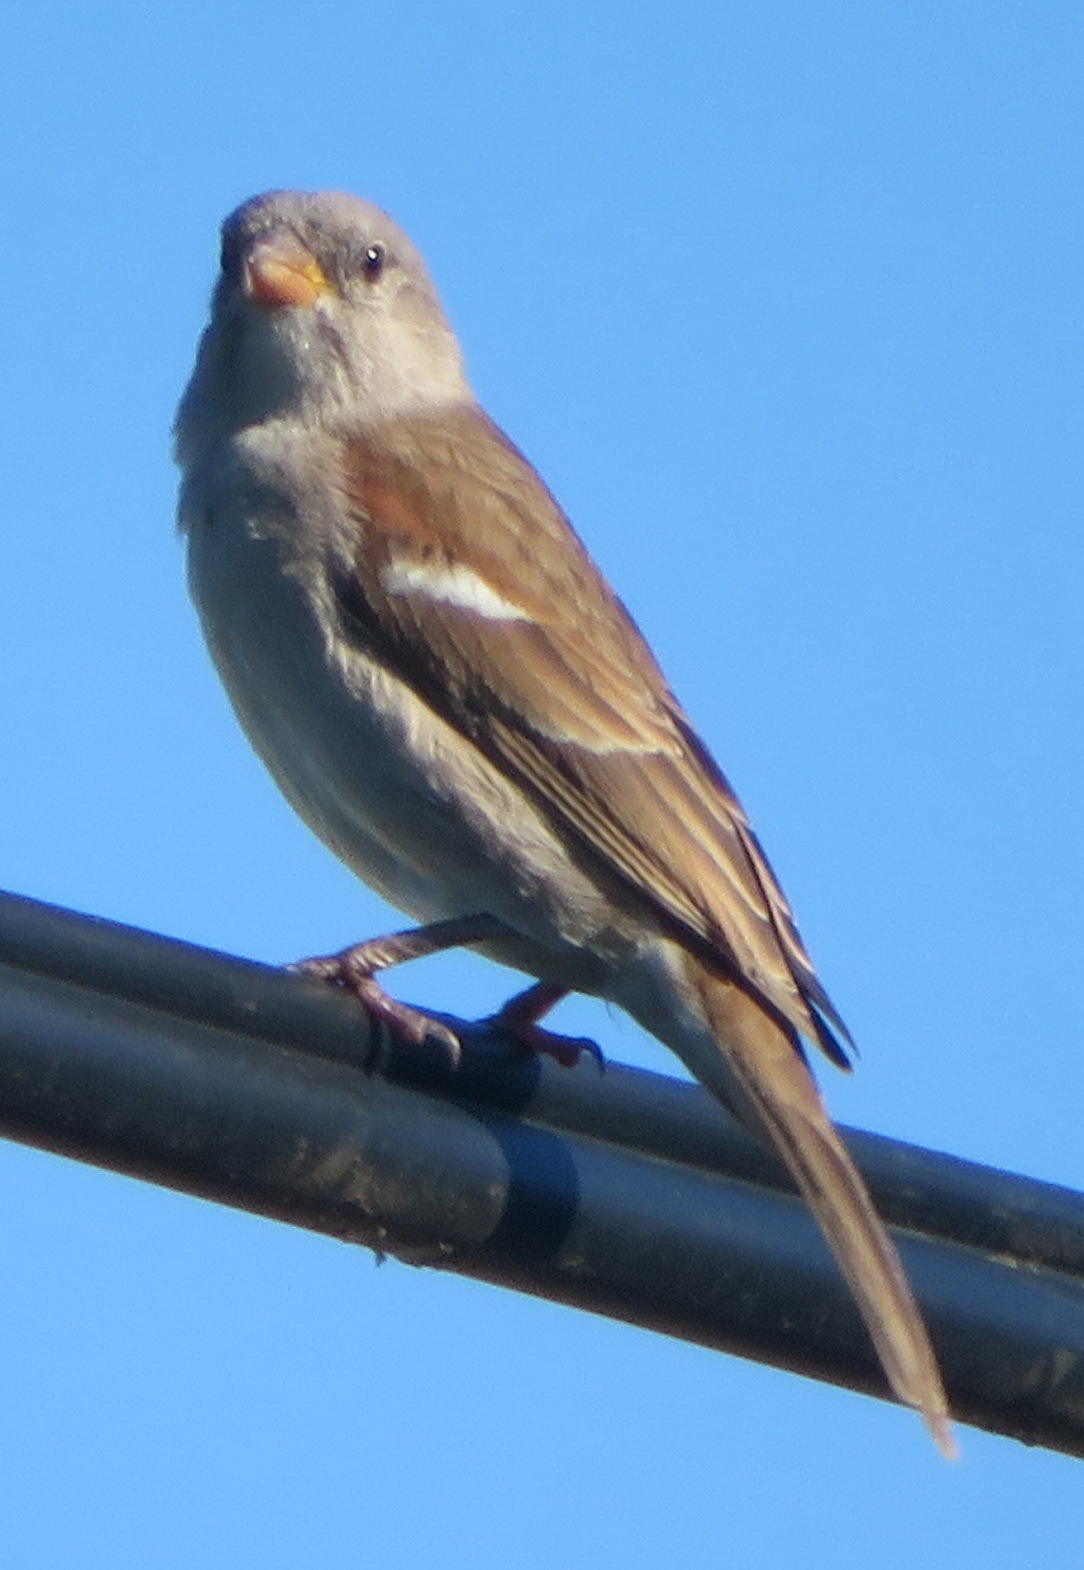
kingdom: Animalia
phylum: Chordata
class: Aves
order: Passeriformes
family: Passeridae
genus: Passer
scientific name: Passer diffusus
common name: Southern grey-headed sparrow
